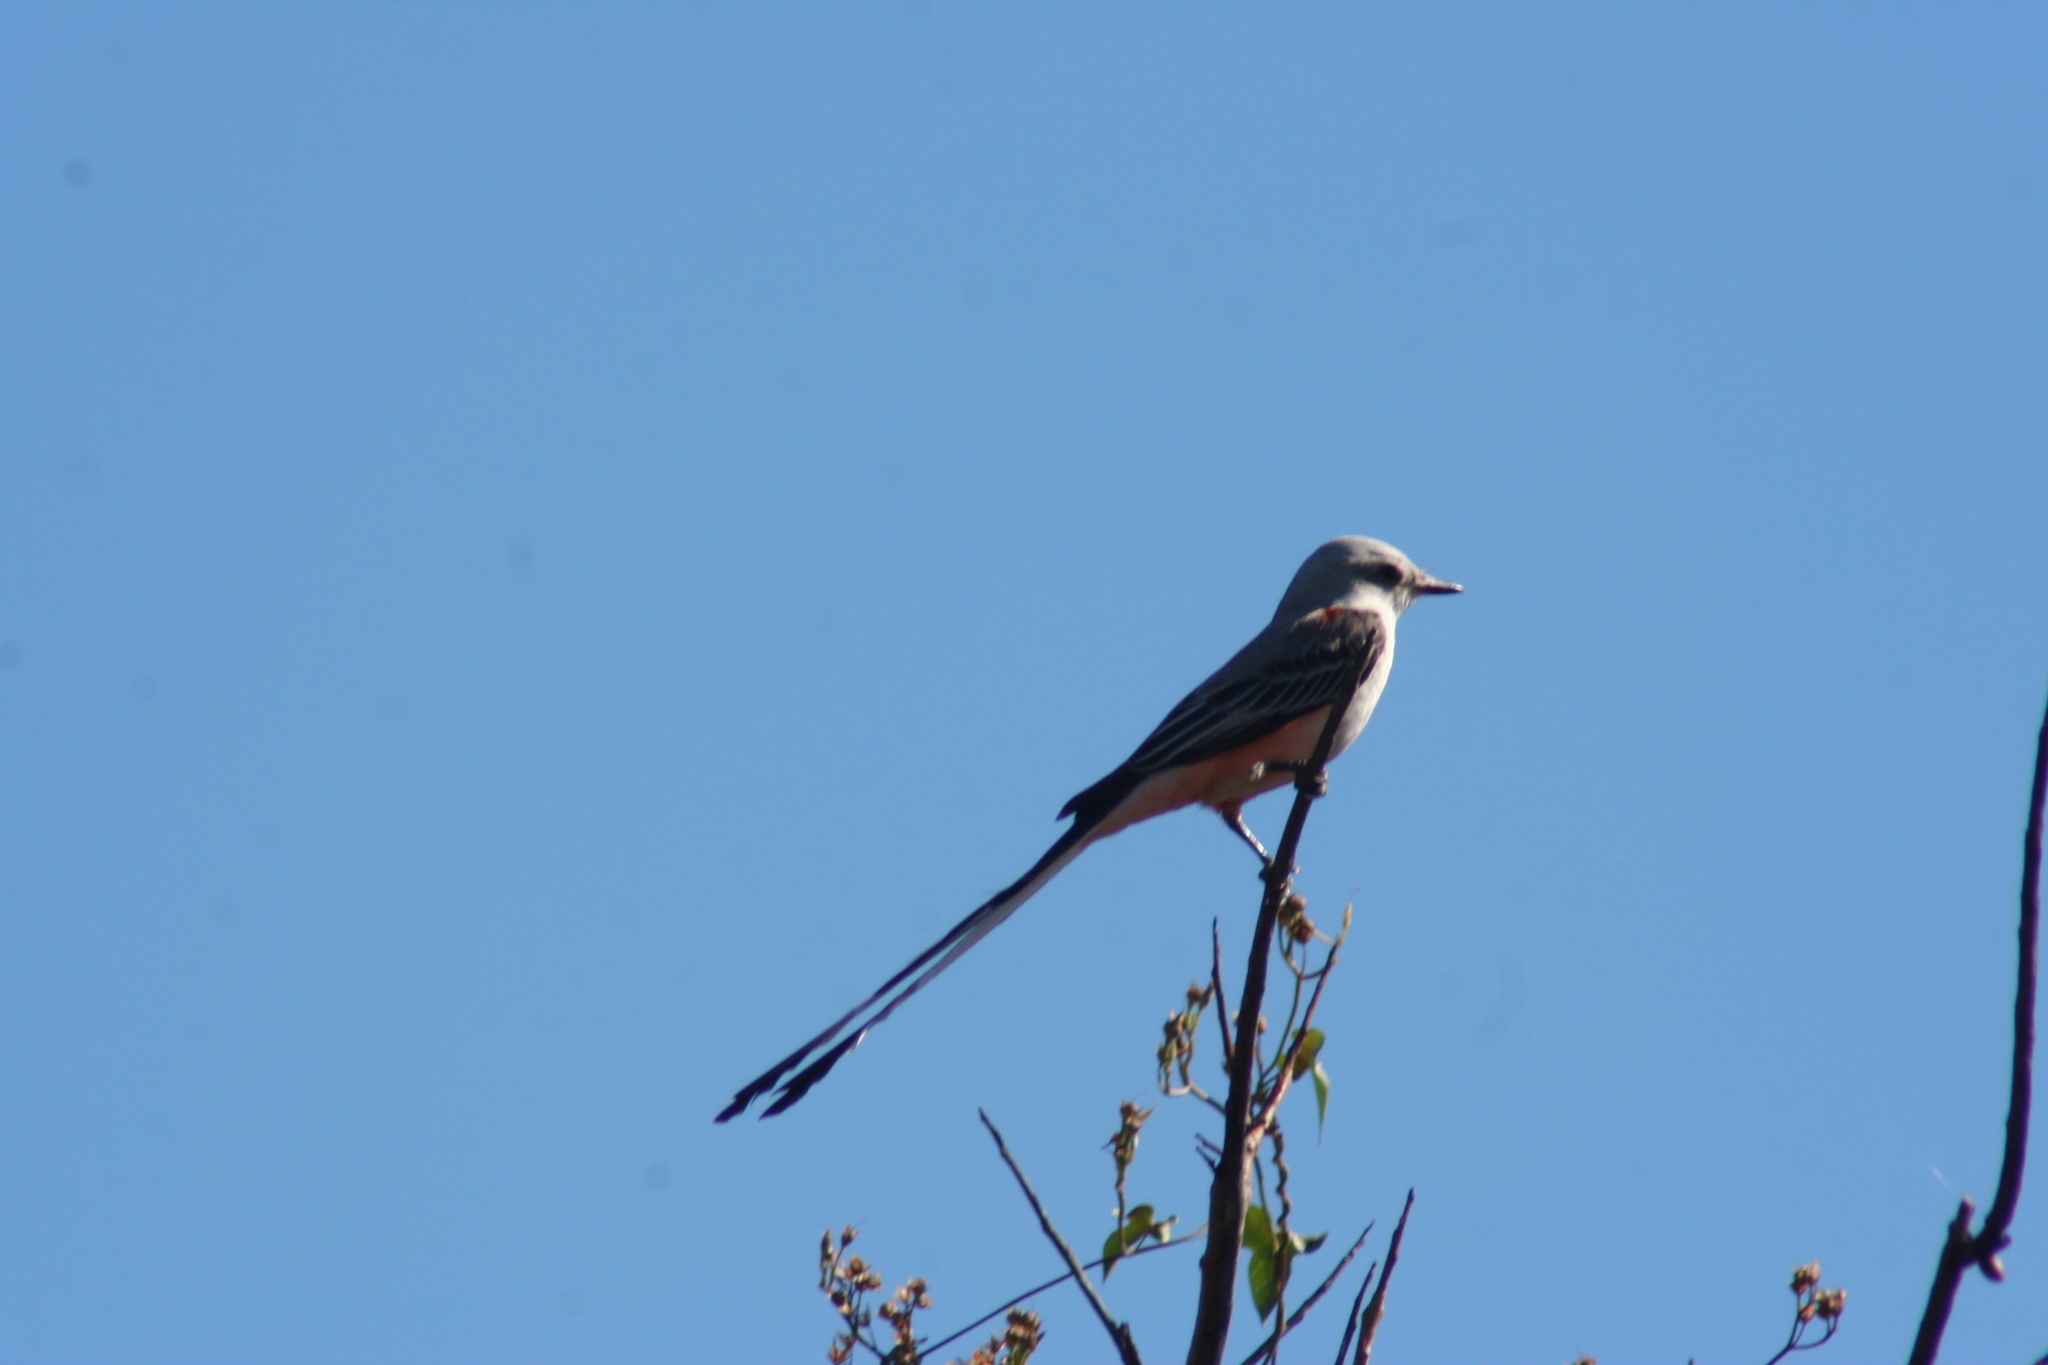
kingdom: Animalia
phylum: Chordata
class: Aves
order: Passeriformes
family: Tyrannidae
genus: Tyrannus
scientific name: Tyrannus forficatus
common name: Scissor-tailed flycatcher
